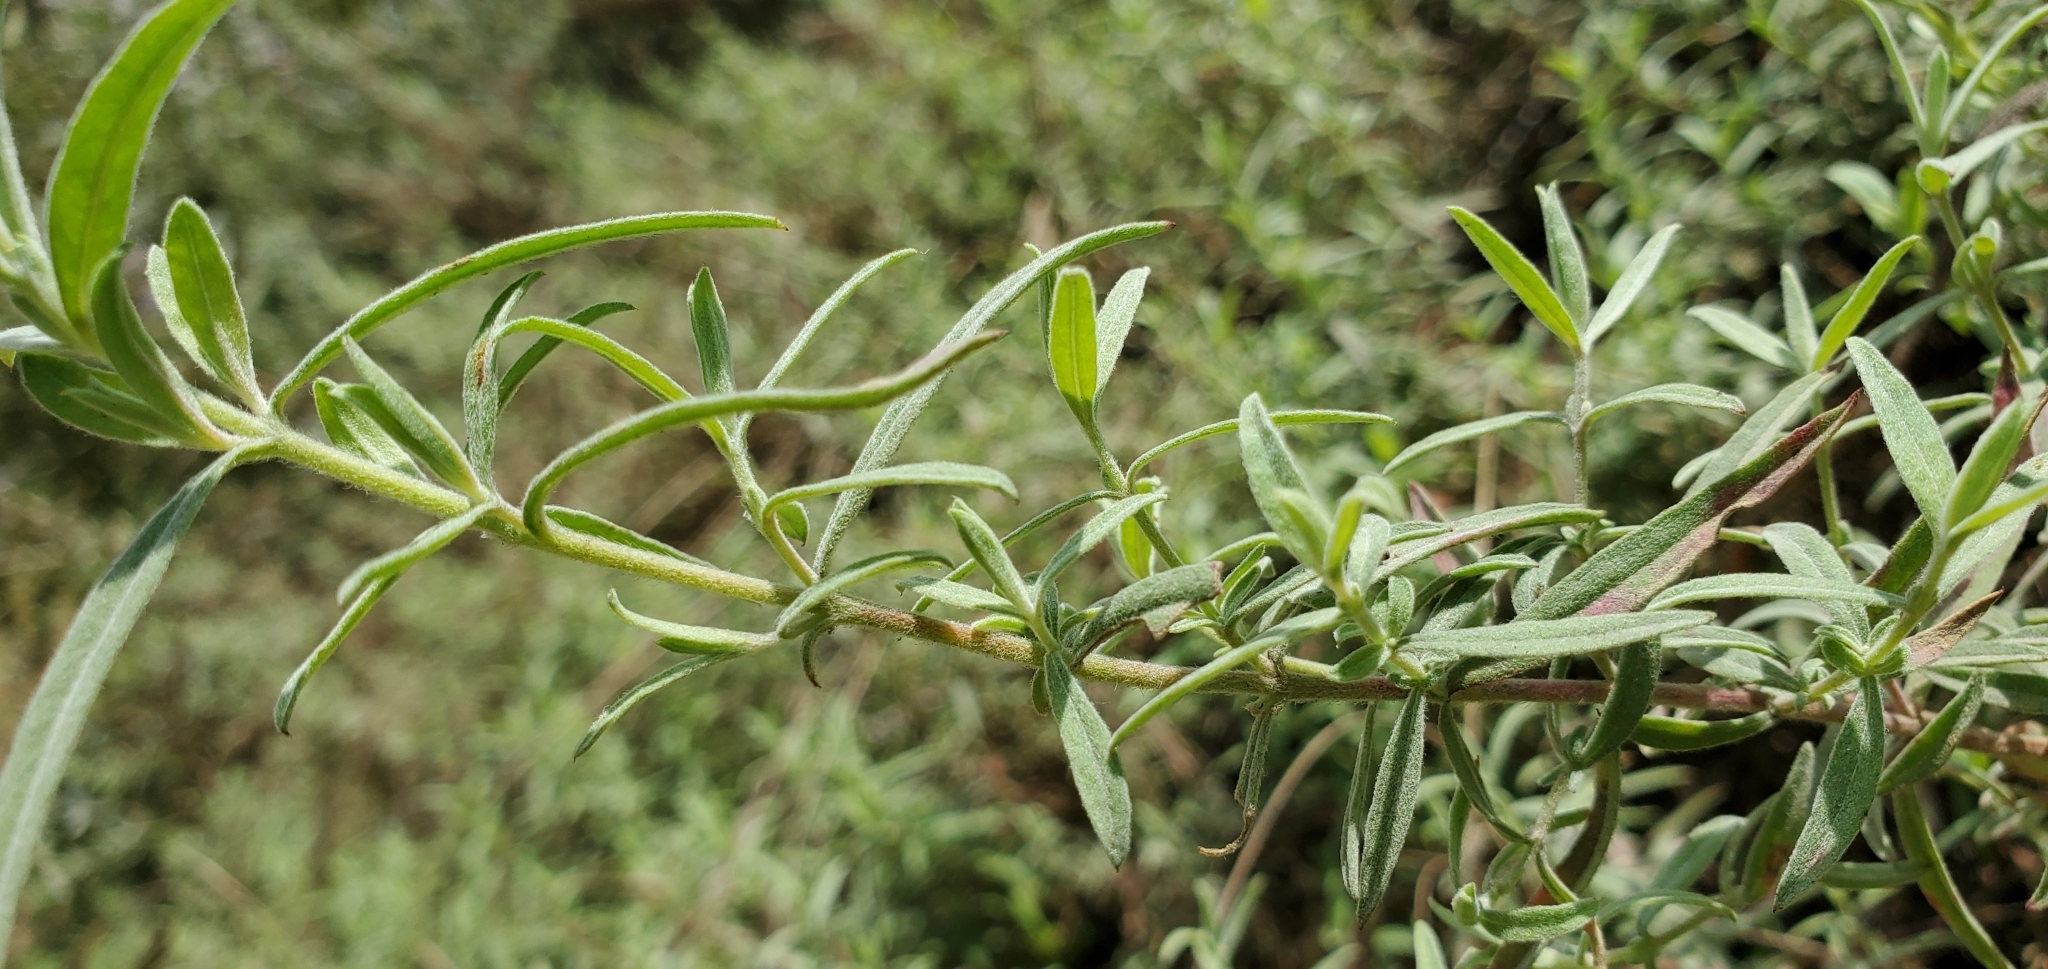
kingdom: Plantae
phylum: Tracheophyta
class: Magnoliopsida
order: Myrtales
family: Onagraceae
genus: Epilobium
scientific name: Epilobium canum
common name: California-fuchsia
